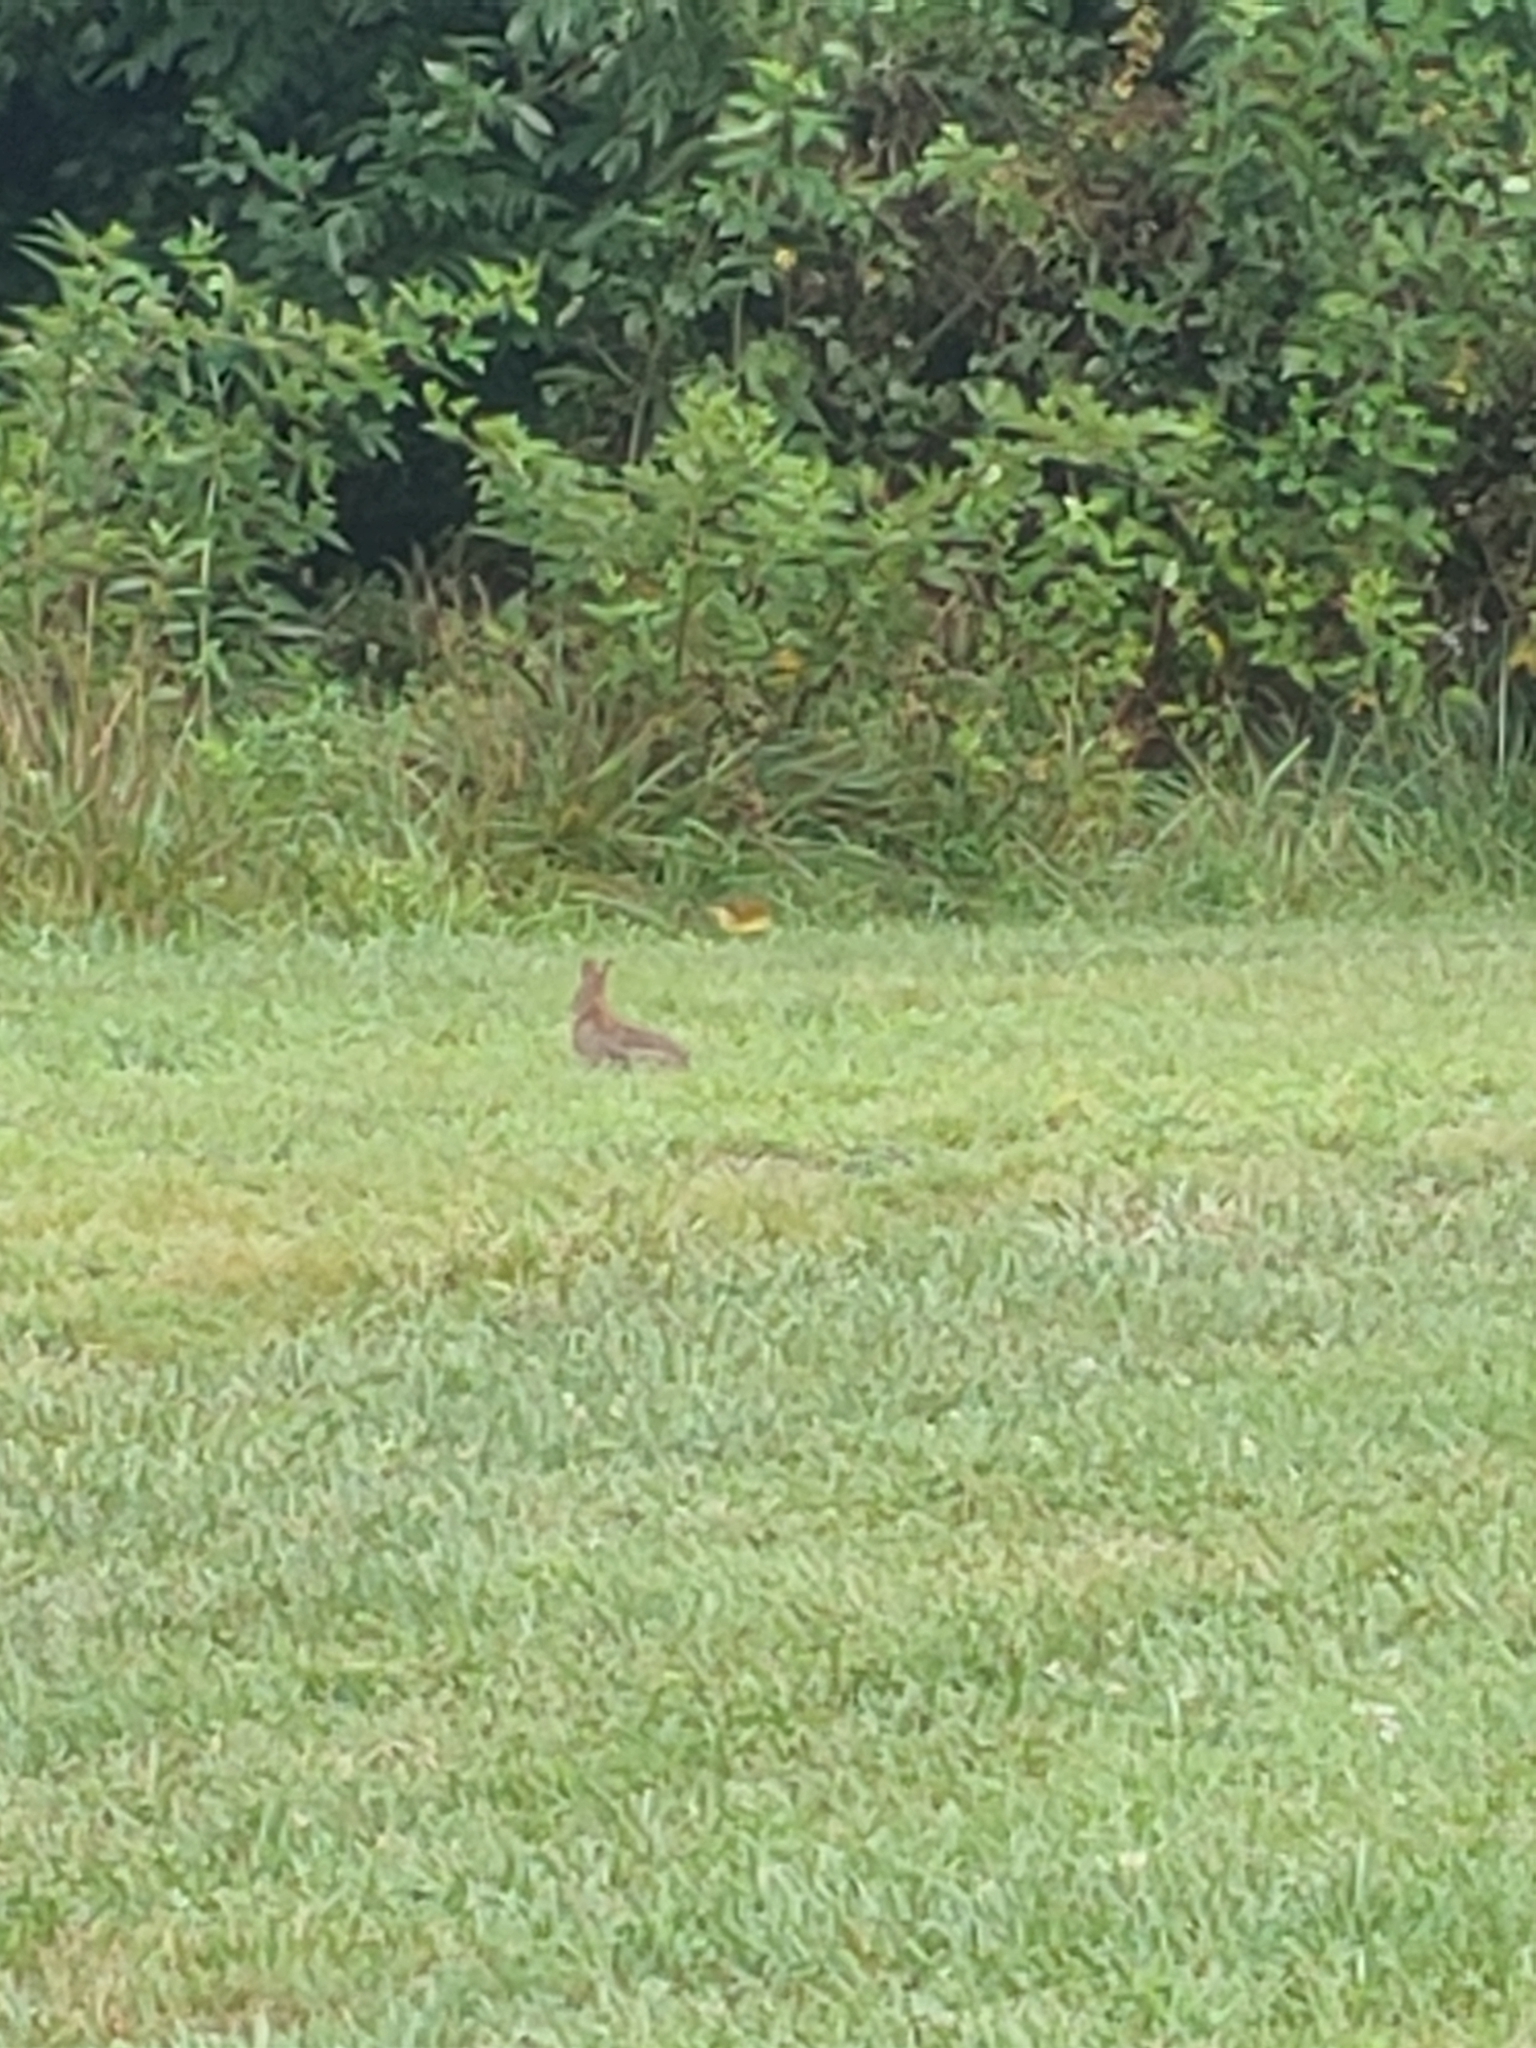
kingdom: Animalia
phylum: Chordata
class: Mammalia
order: Lagomorpha
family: Leporidae
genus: Sylvilagus
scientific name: Sylvilagus floridanus
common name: Eastern cottontail
